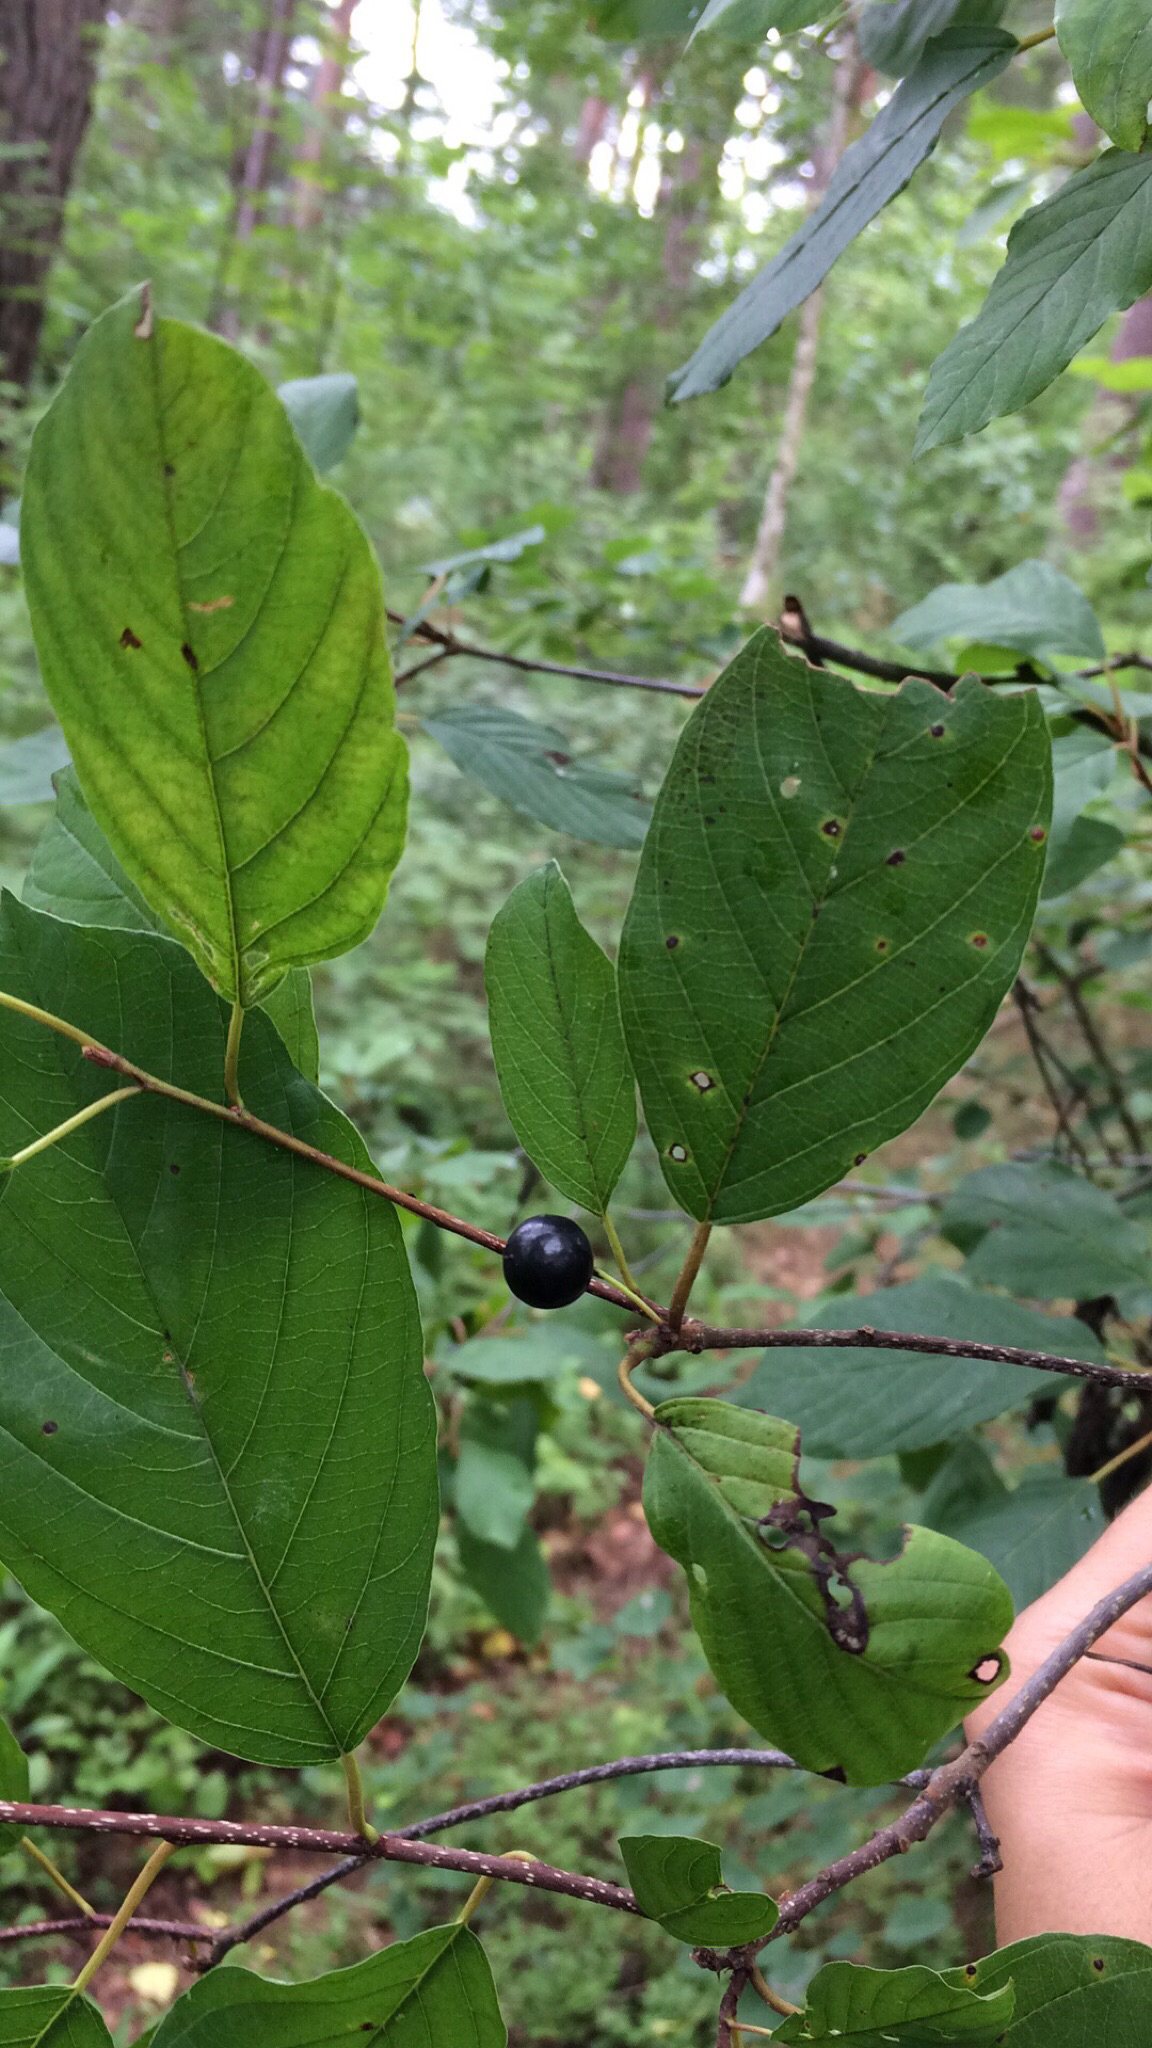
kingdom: Plantae
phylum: Tracheophyta
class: Magnoliopsida
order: Rosales
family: Rhamnaceae
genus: Frangula
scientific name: Frangula alnus
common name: Alder buckthorn
